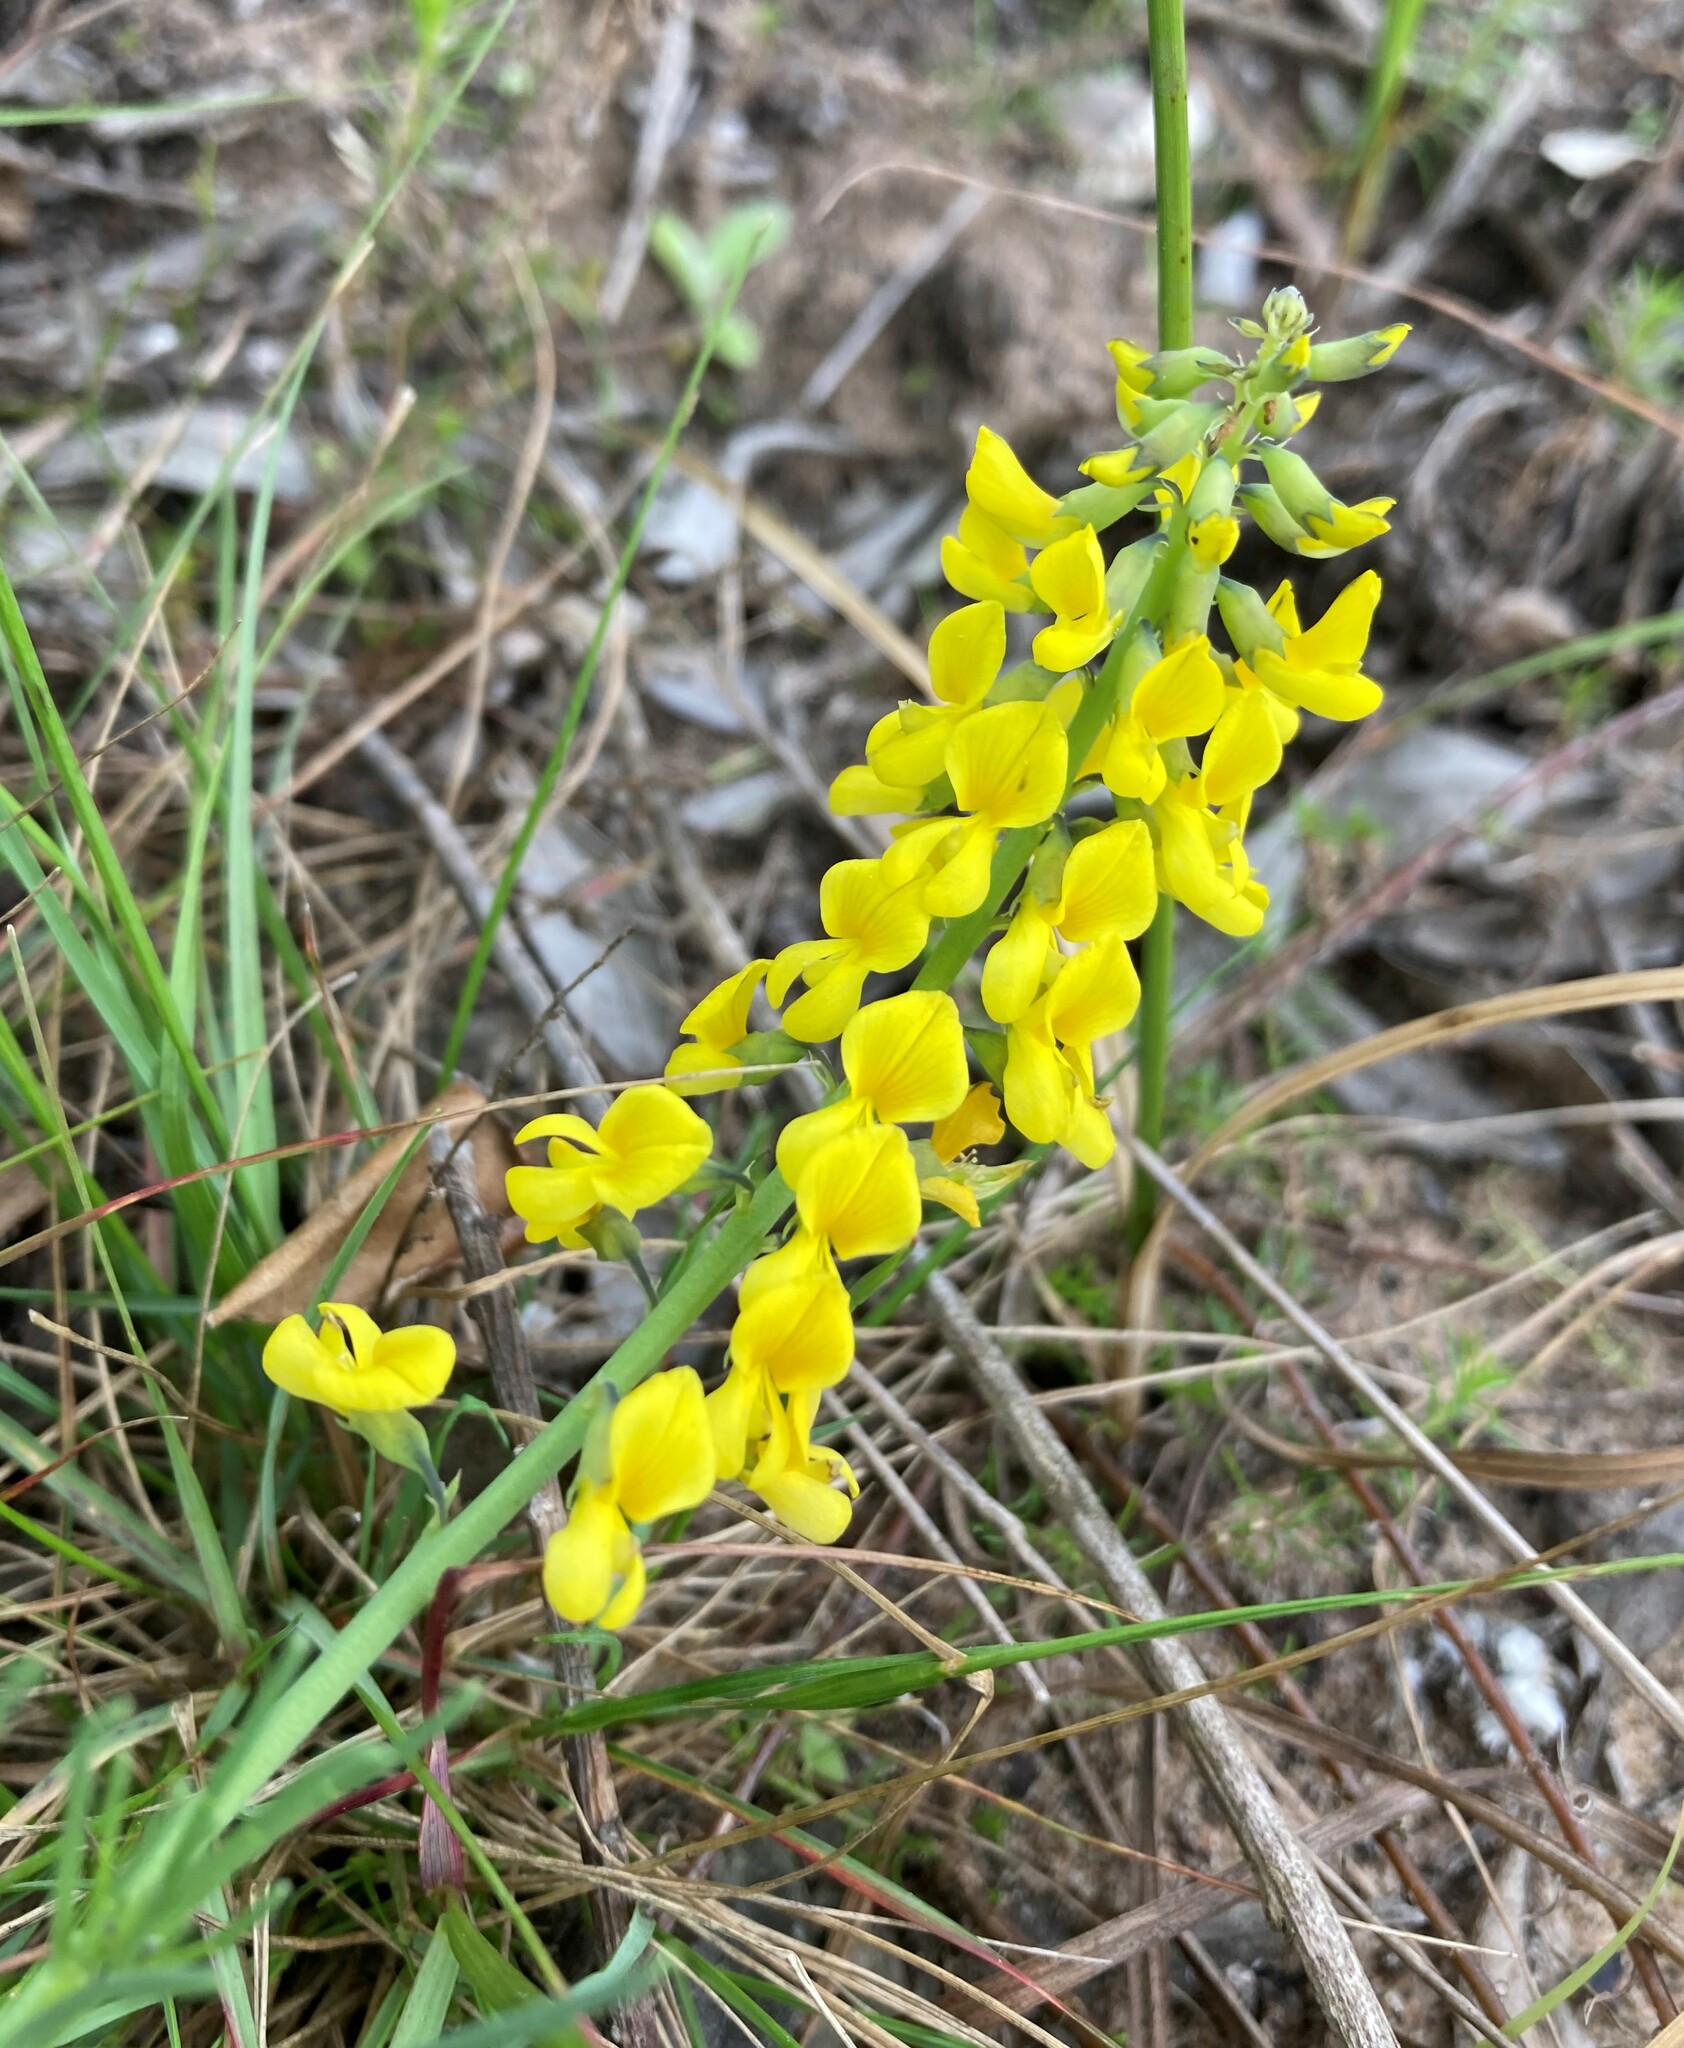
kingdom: Plantae
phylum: Tracheophyta
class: Magnoliopsida
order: Fabales
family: Fabaceae
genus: Lebeckia
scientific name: Lebeckia gracilis
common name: Slender ganna
